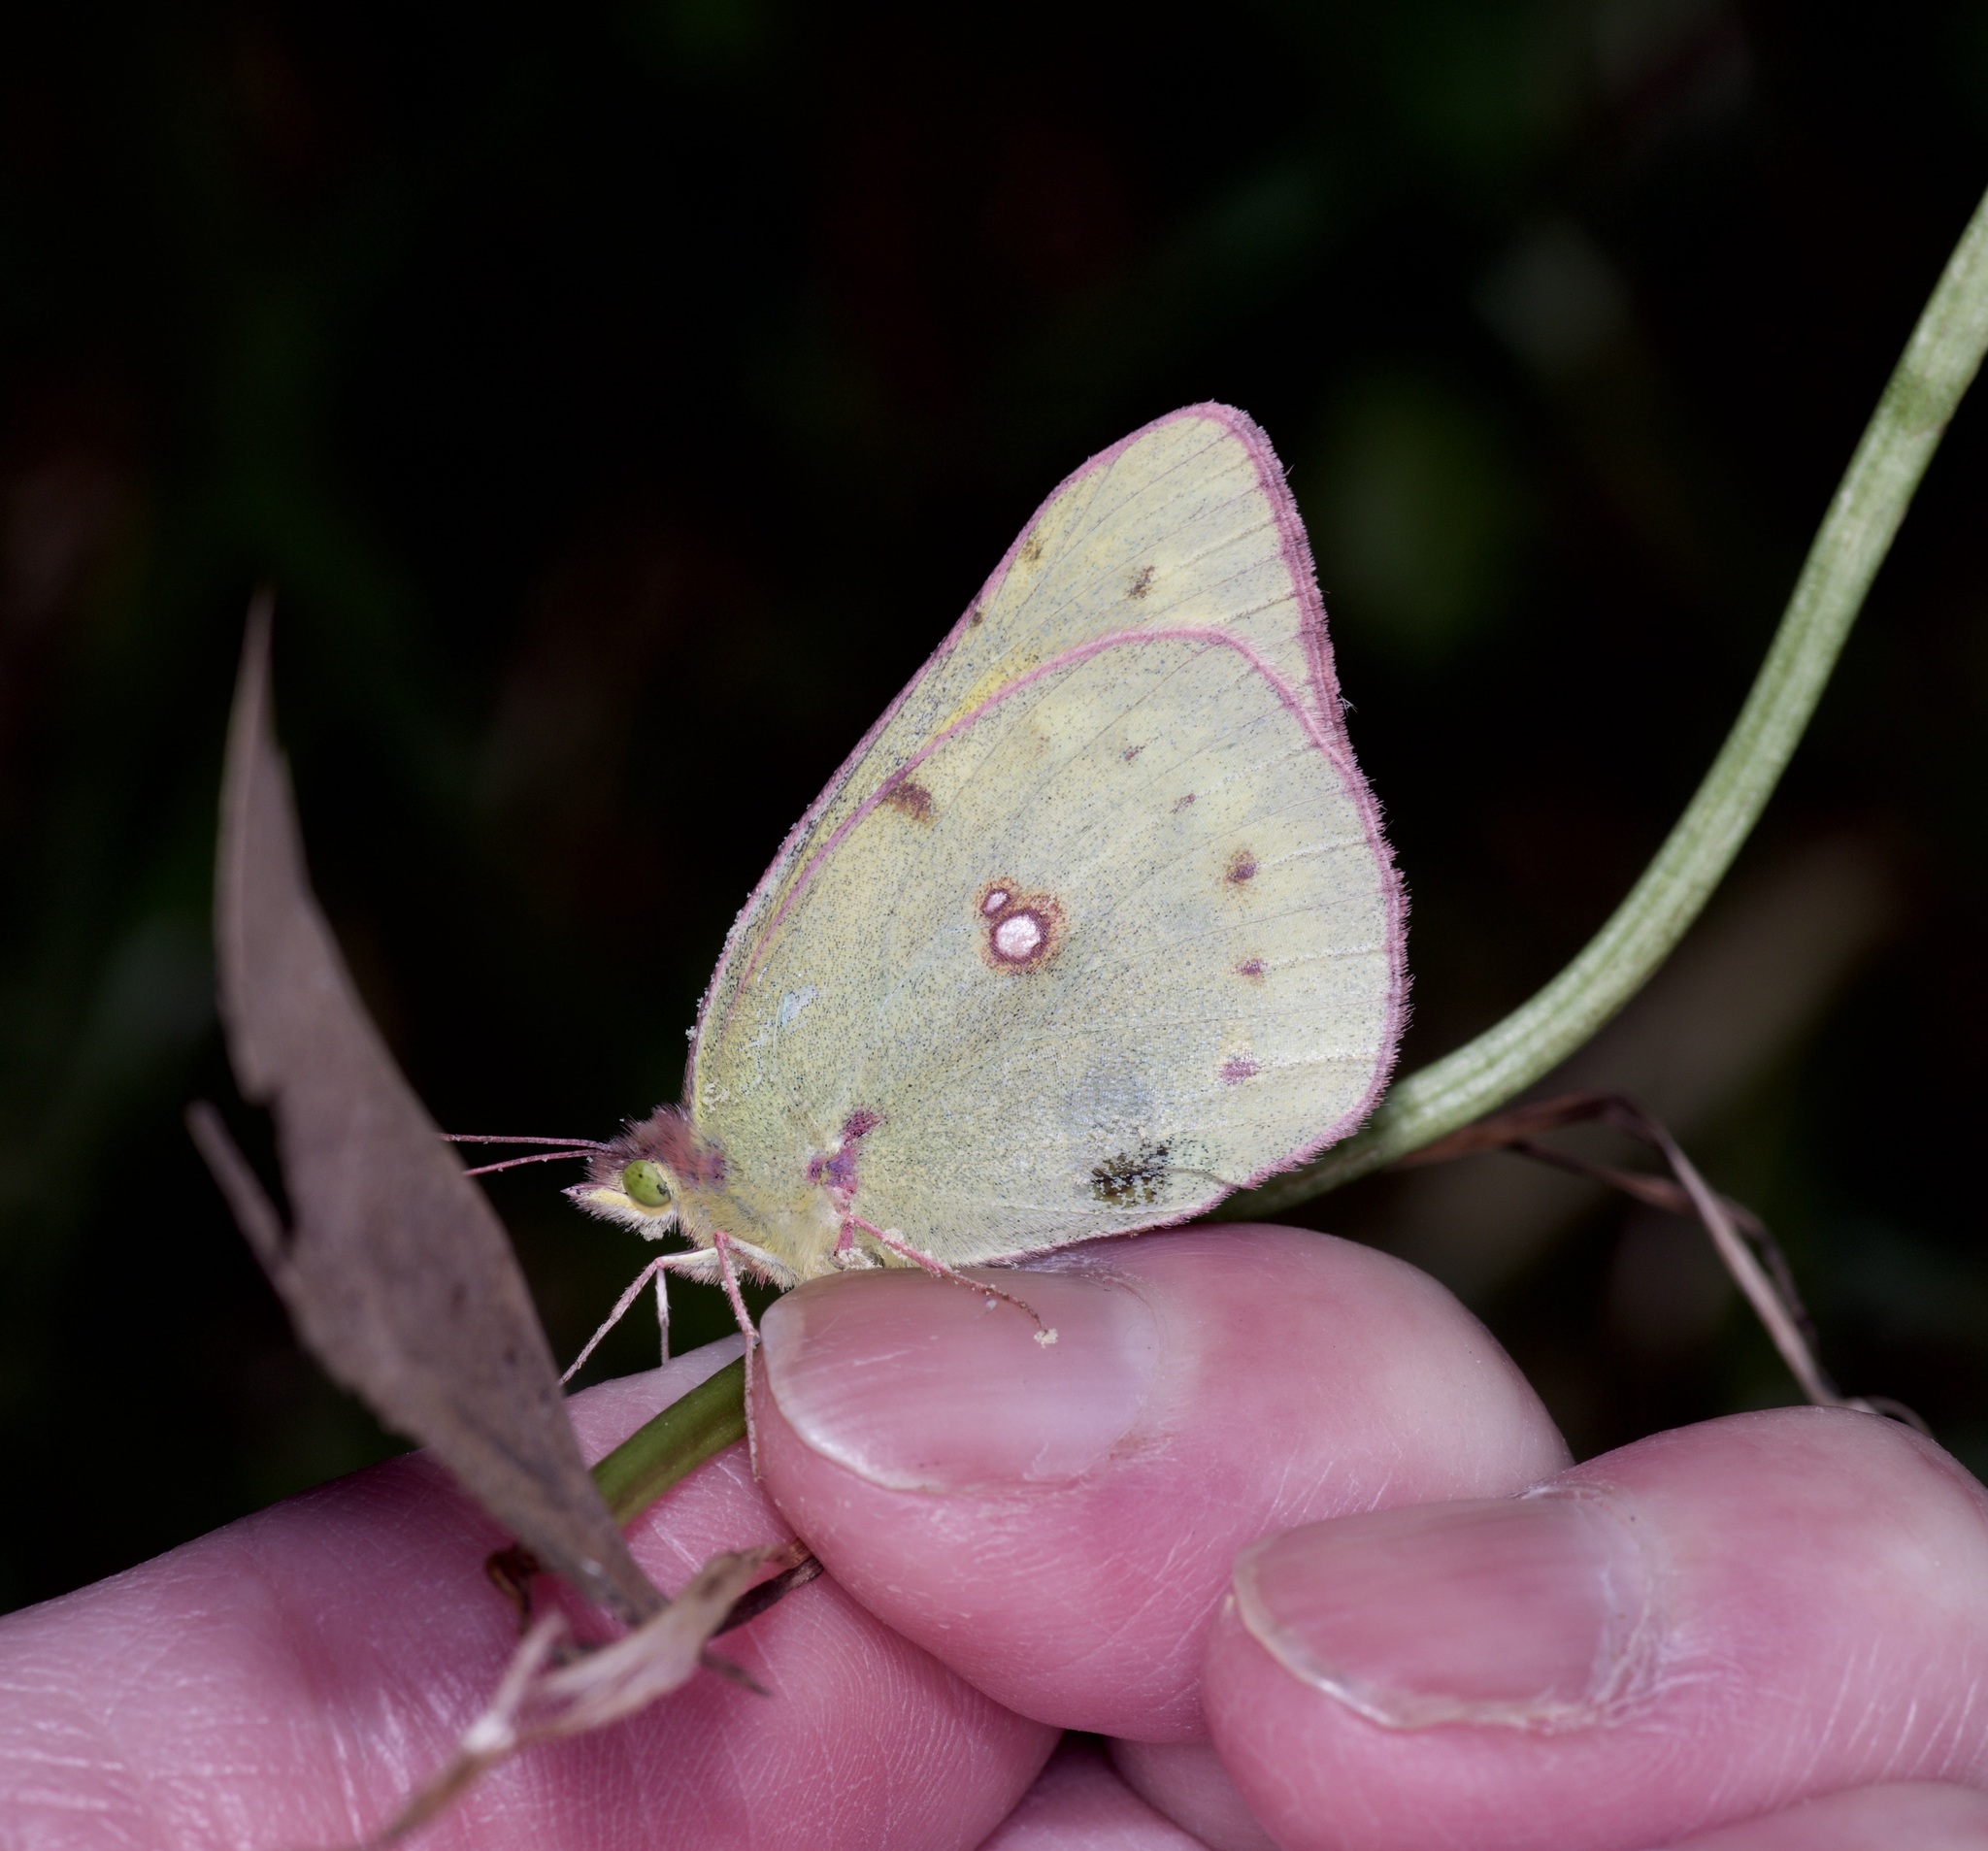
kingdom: Animalia
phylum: Arthropoda
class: Insecta
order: Lepidoptera
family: Pieridae
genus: Colias
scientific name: Colias eurytheme
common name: Alfalfa butterfly
